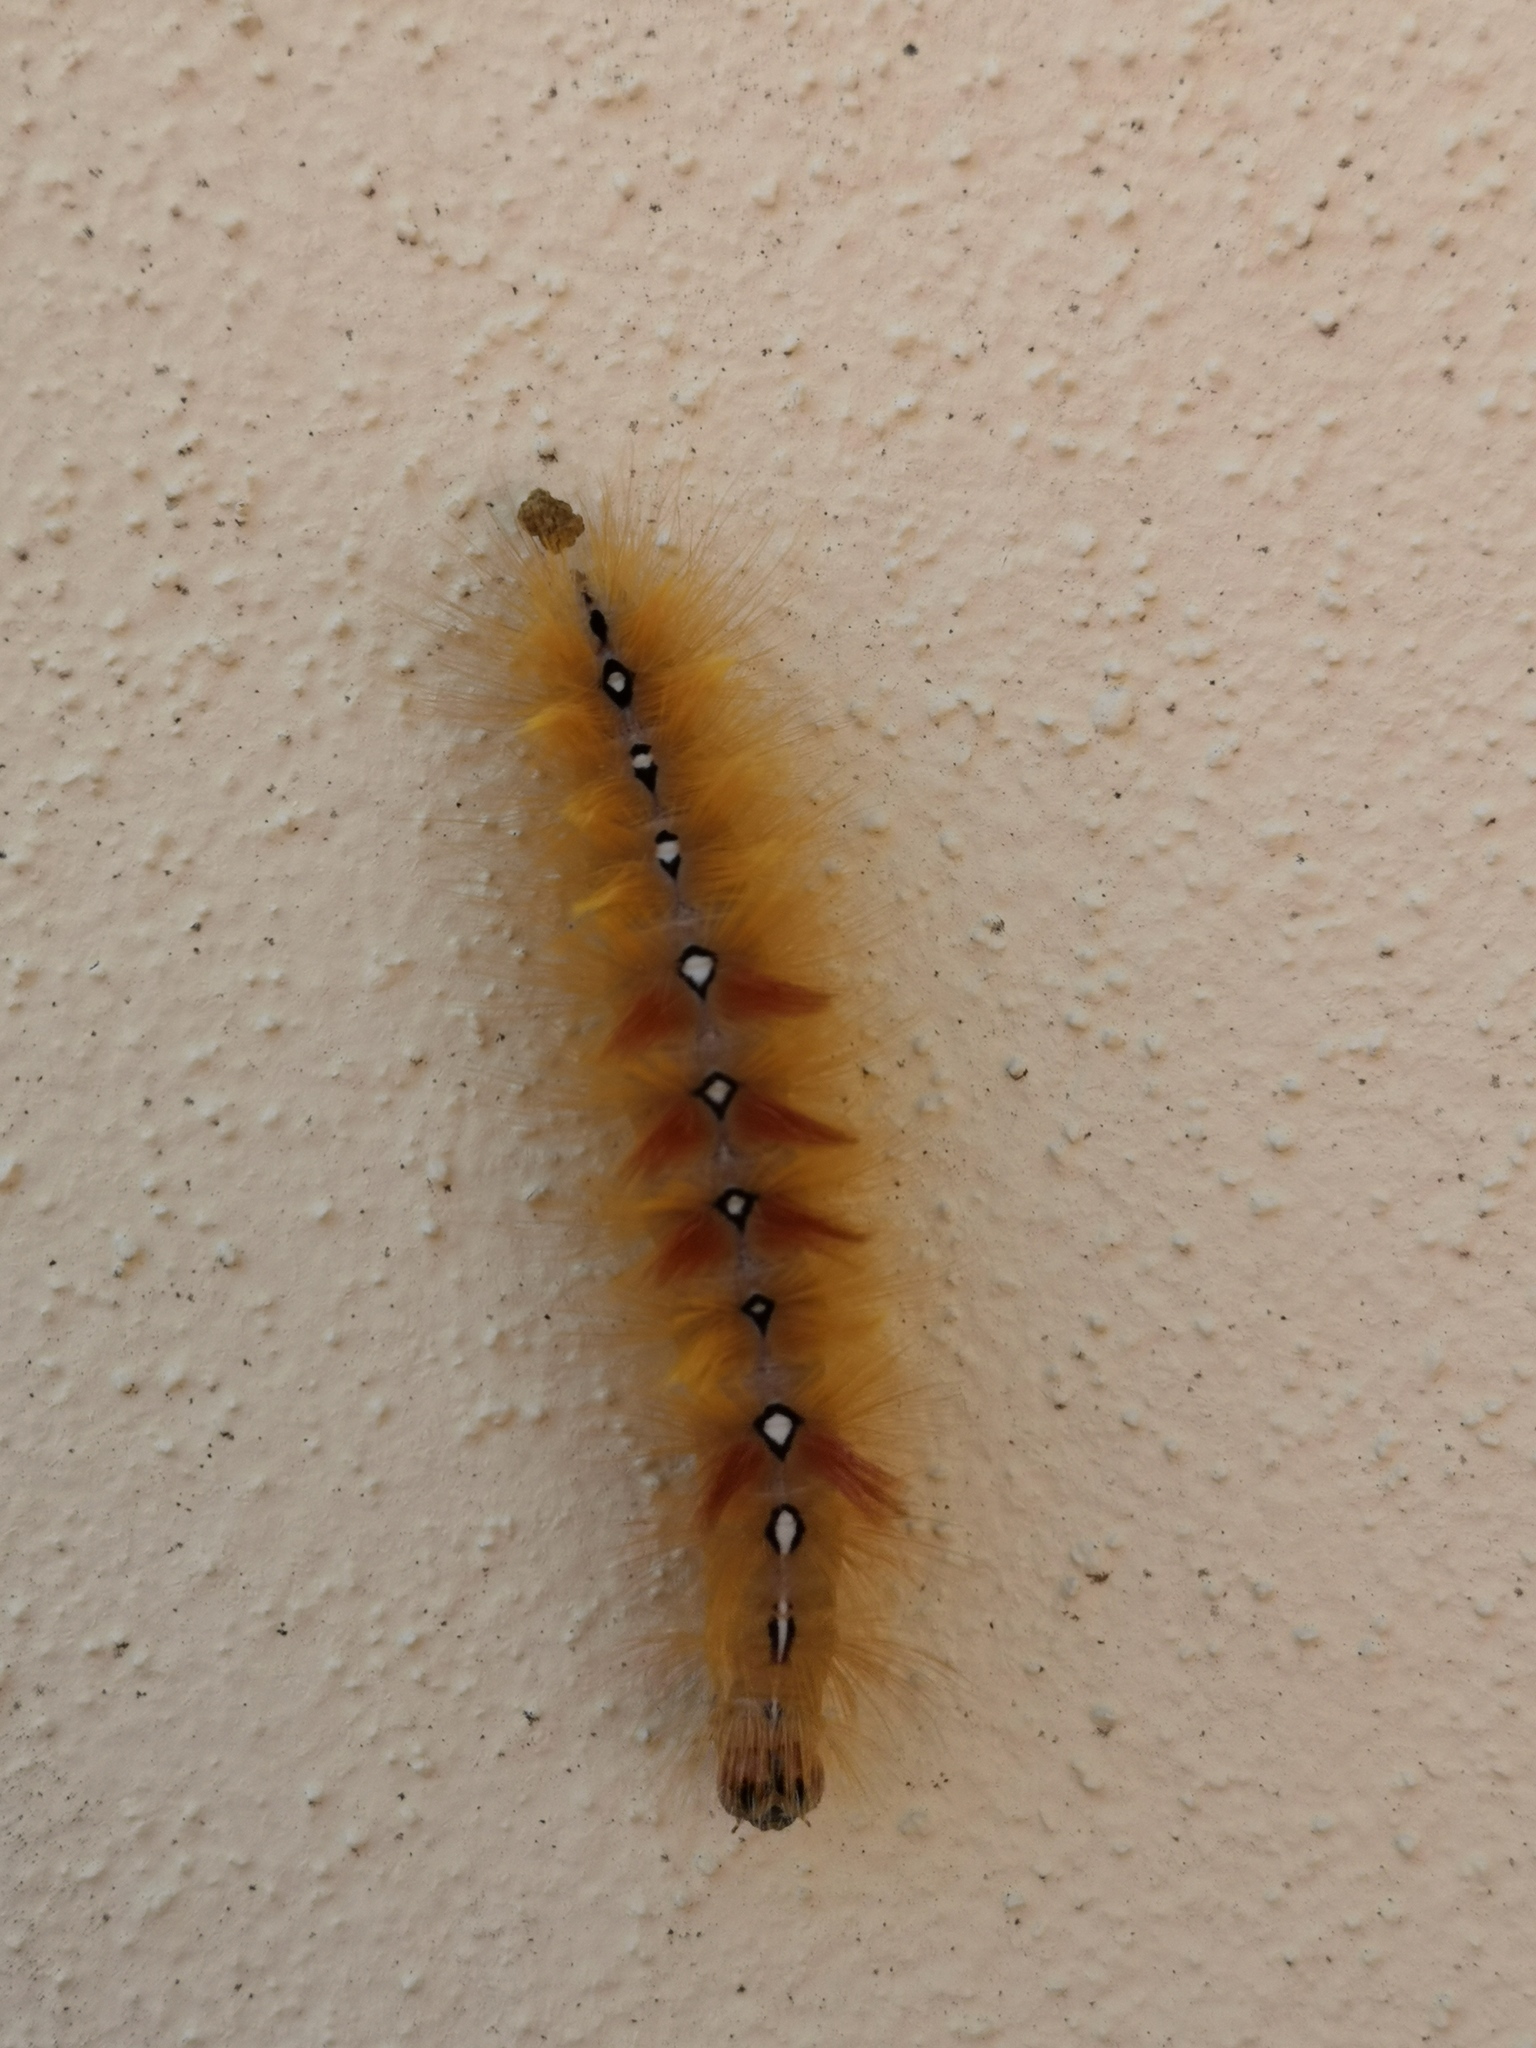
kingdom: Animalia
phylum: Arthropoda
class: Insecta
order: Lepidoptera
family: Noctuidae
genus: Acronicta
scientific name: Acronicta aceris
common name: Sycamore
